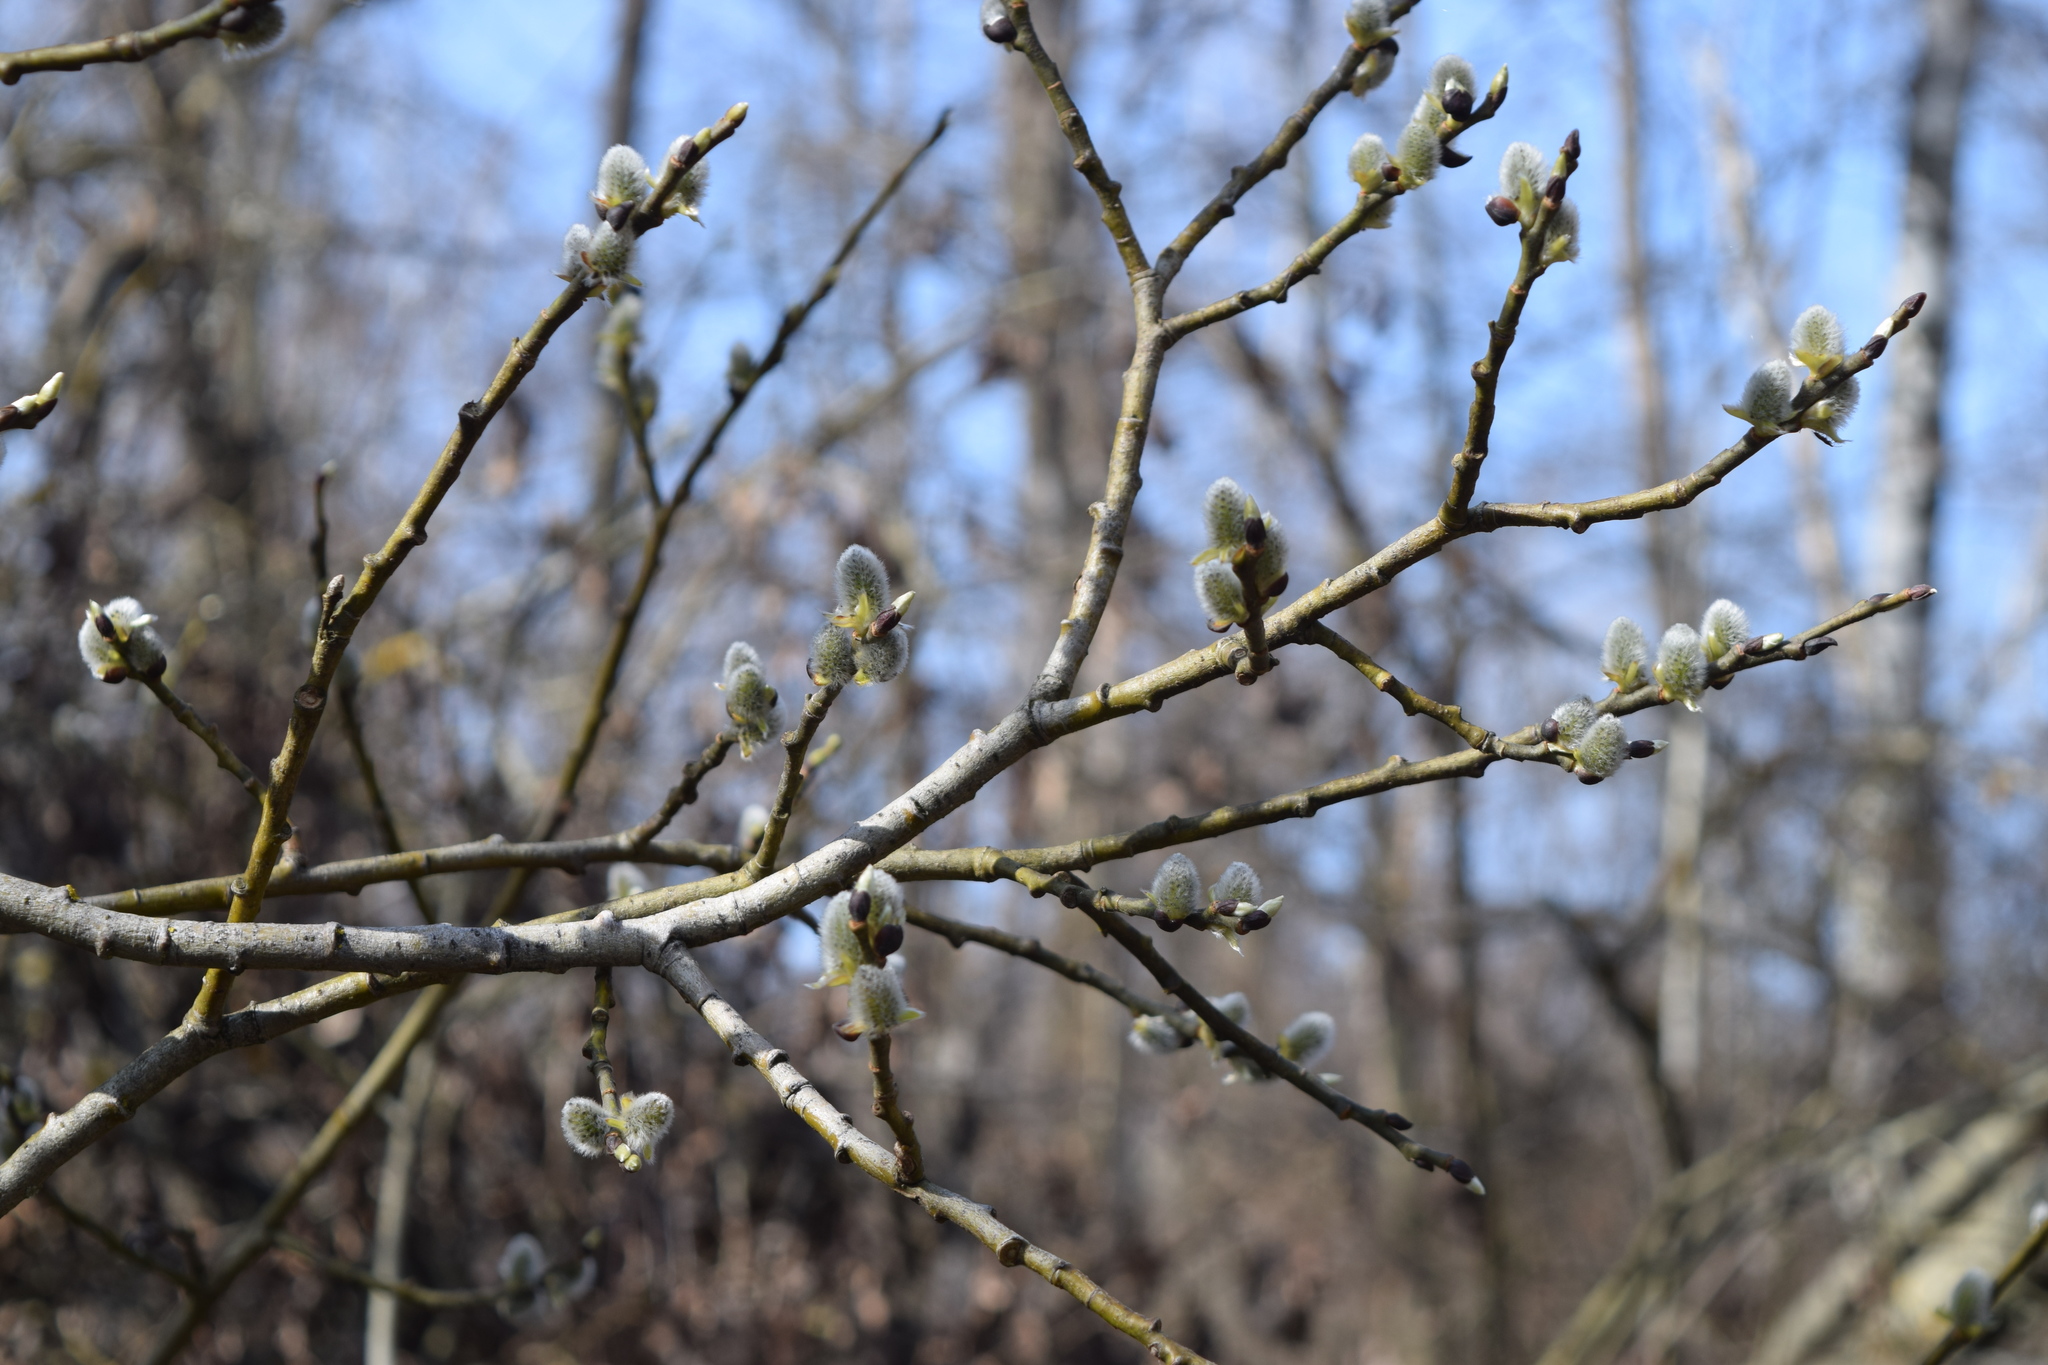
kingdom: Plantae
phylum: Tracheophyta
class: Magnoliopsida
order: Malpighiales
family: Salicaceae
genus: Salix
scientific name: Salix caprea
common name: Goat willow
